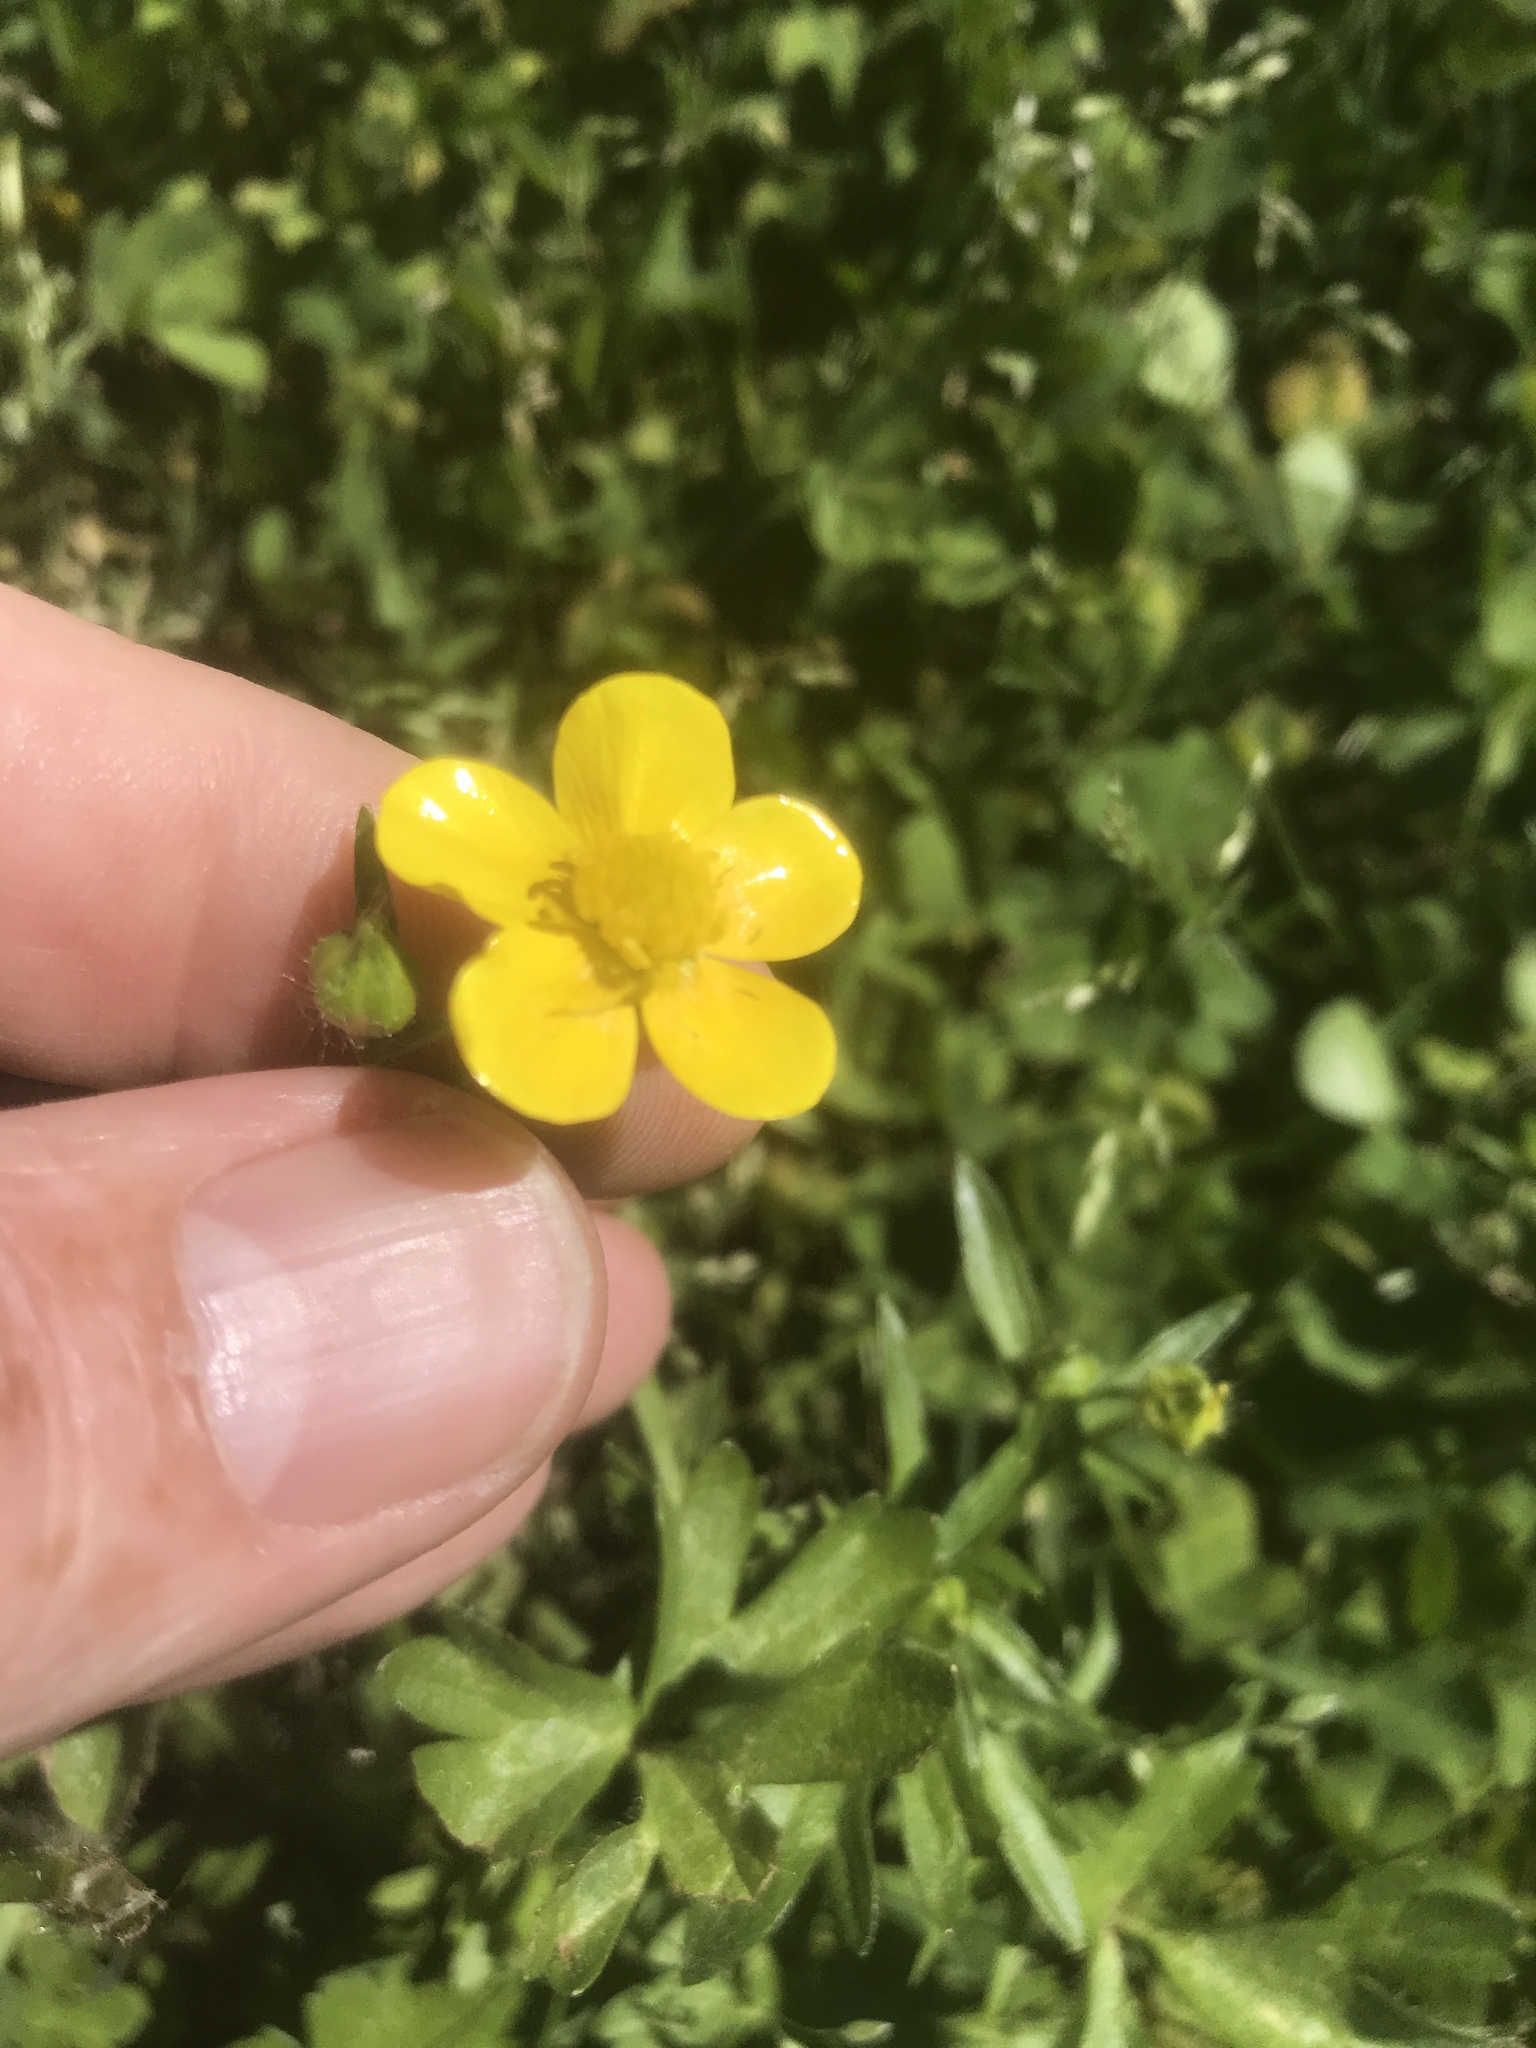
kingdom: Plantae
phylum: Tracheophyta
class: Magnoliopsida
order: Ranunculales
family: Ranunculaceae
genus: Ranunculus
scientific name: Ranunculus bulbosus
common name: Bulbous buttercup
